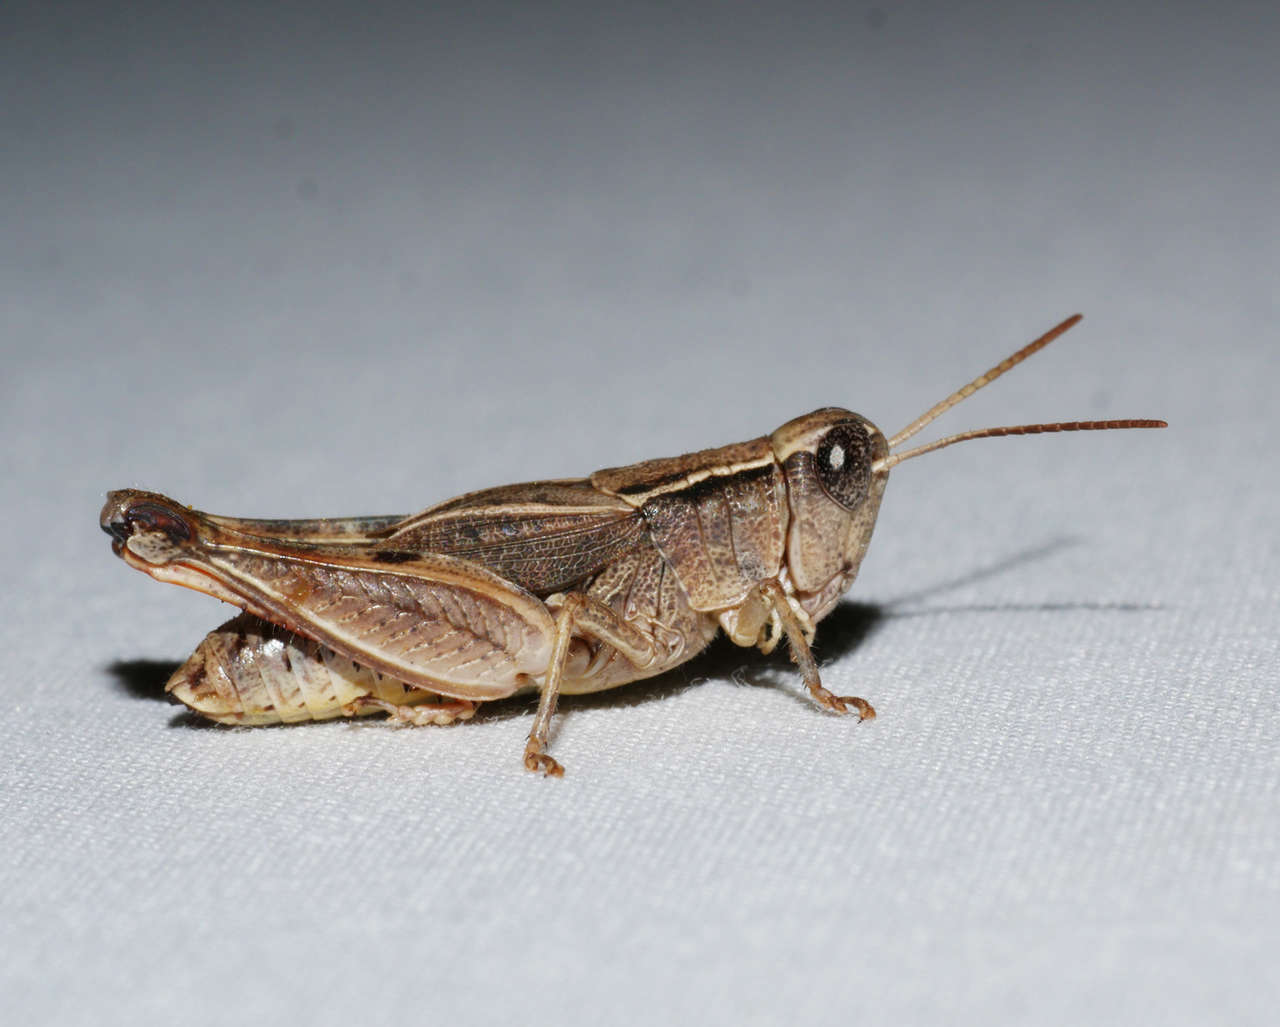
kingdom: Animalia
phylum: Arthropoda
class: Insecta
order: Orthoptera
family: Acrididae
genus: Phaulacridium
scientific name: Phaulacridium vittatum
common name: Wingless grasshopper
